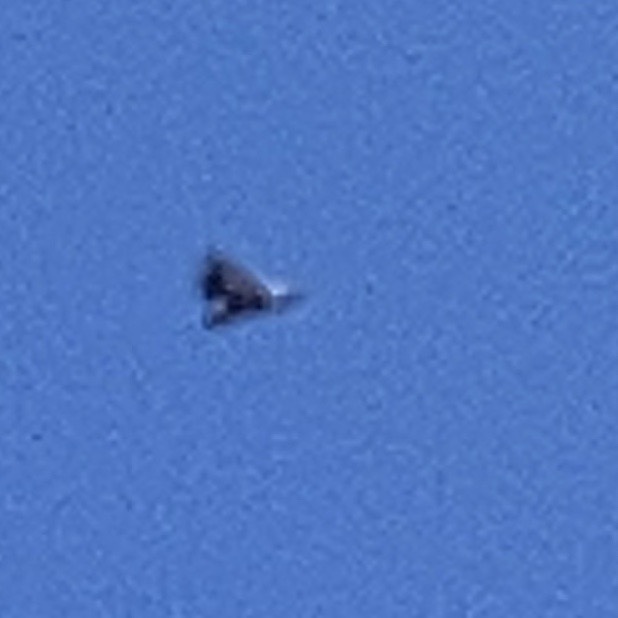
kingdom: Animalia
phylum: Chordata
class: Aves
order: Accipitriformes
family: Accipitridae
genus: Gyps
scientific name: Gyps fulvus
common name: Griffon vulture
